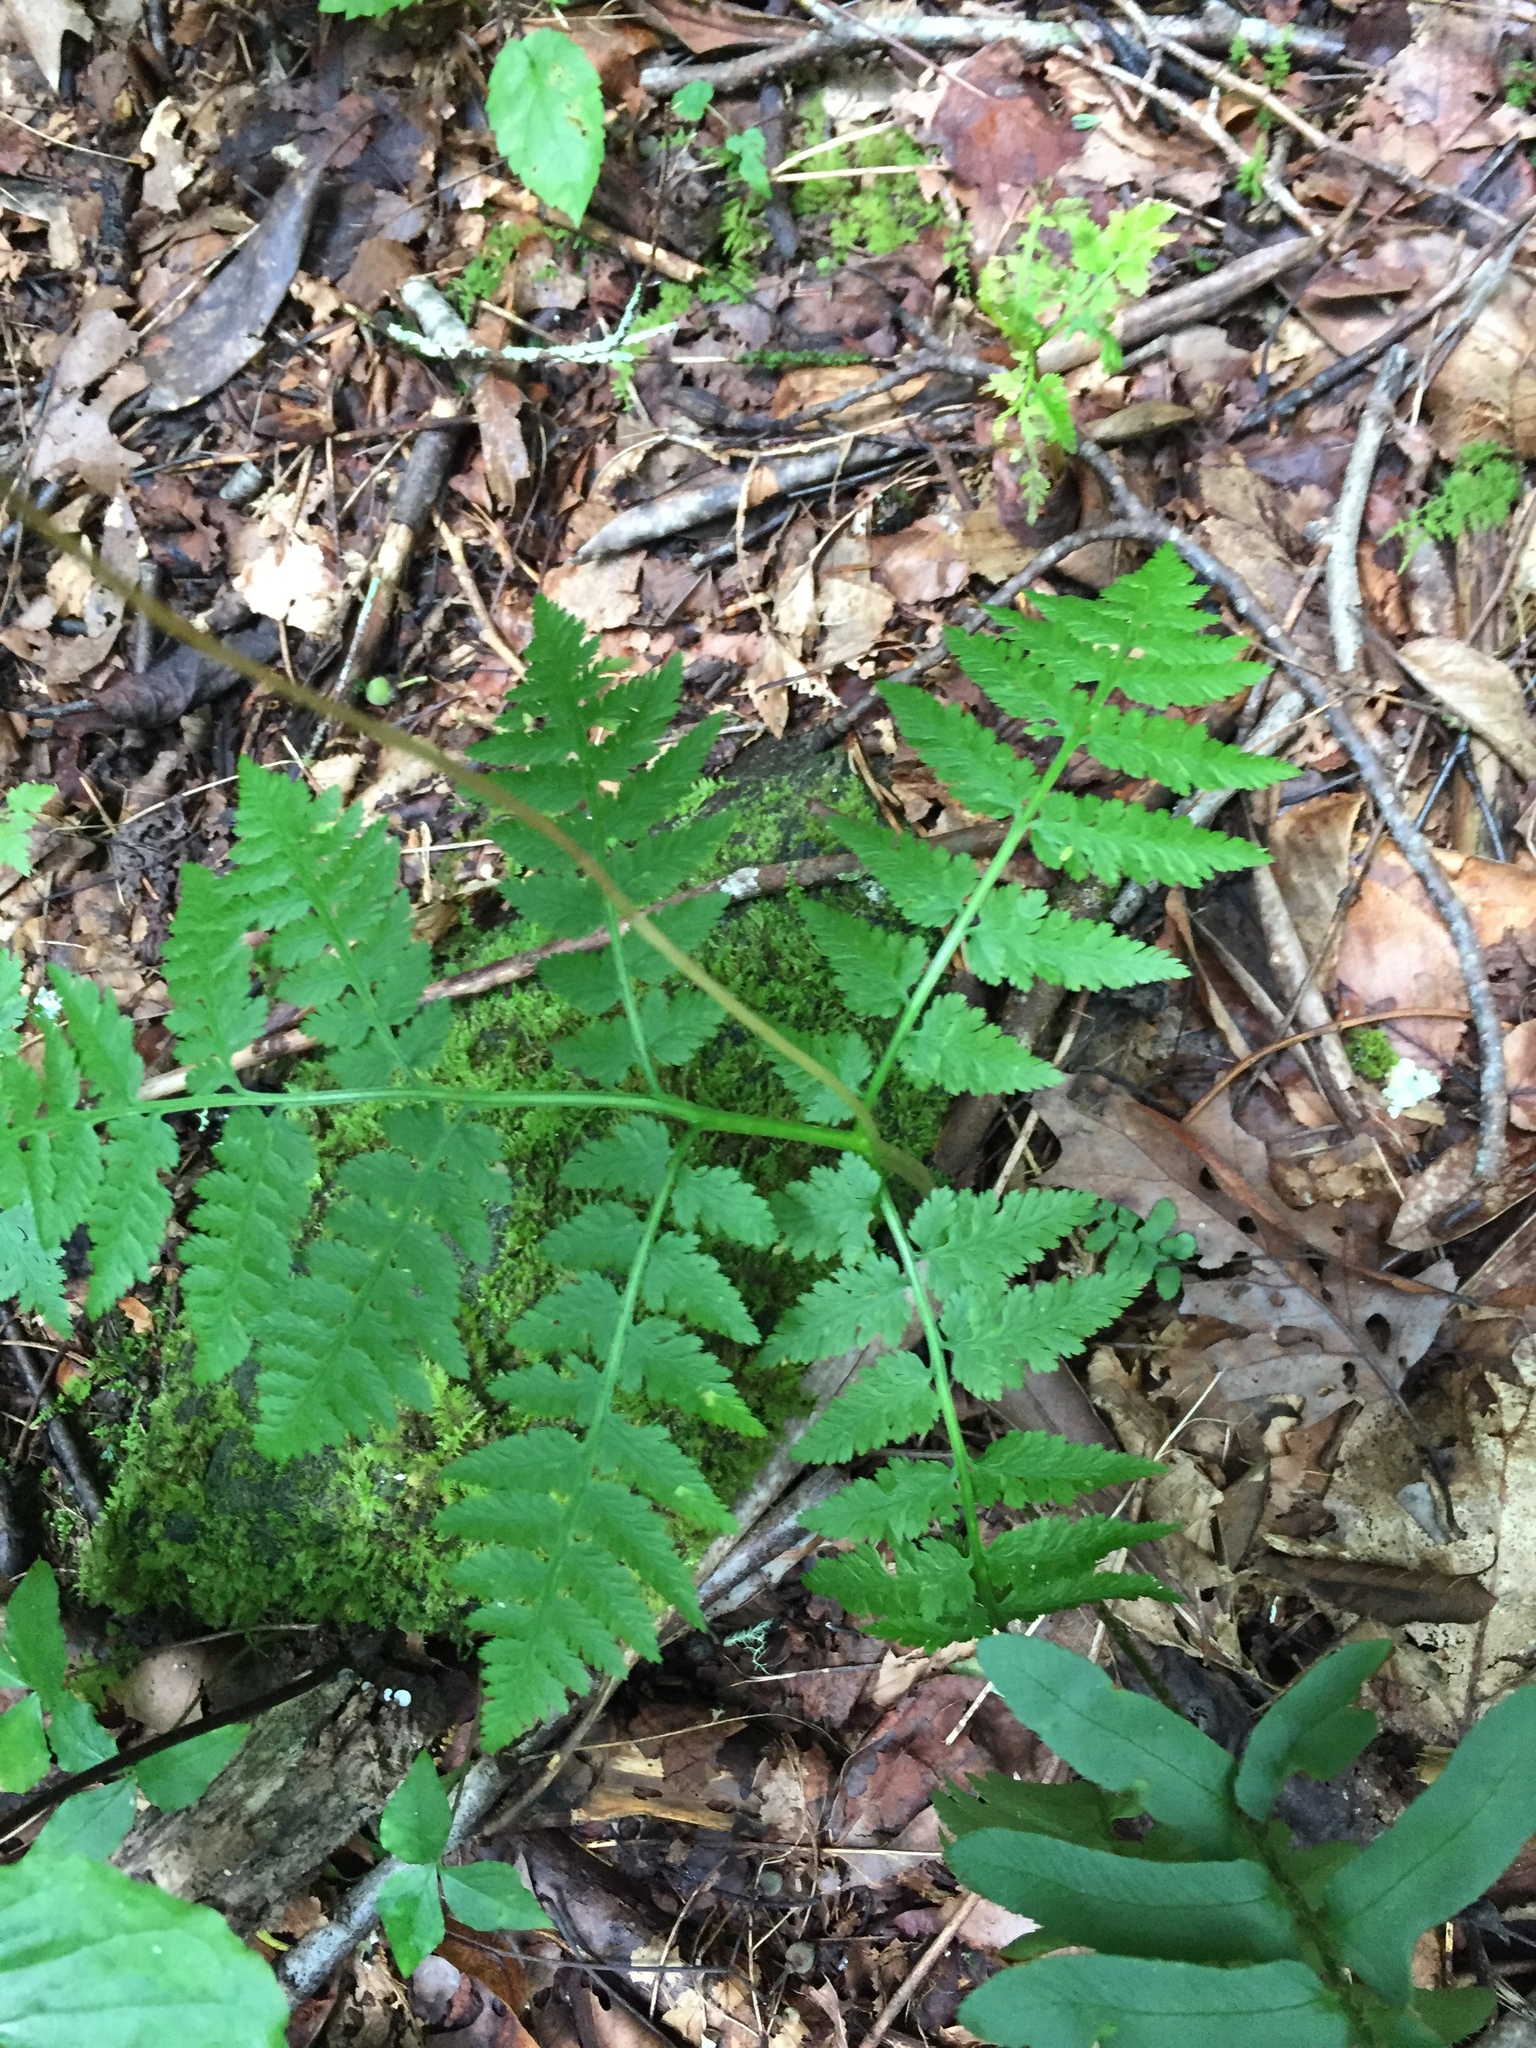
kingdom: Plantae
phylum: Tracheophyta
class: Polypodiopsida
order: Ophioglossales
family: Ophioglossaceae
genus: Botrypus
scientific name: Botrypus virginianus
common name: Common grapefern
